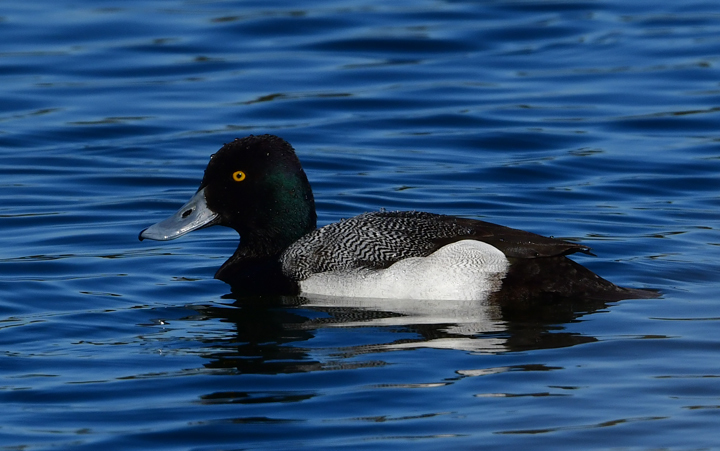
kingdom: Animalia
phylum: Chordata
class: Aves
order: Anseriformes
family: Anatidae
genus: Aythya
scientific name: Aythya affinis
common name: Lesser scaup
